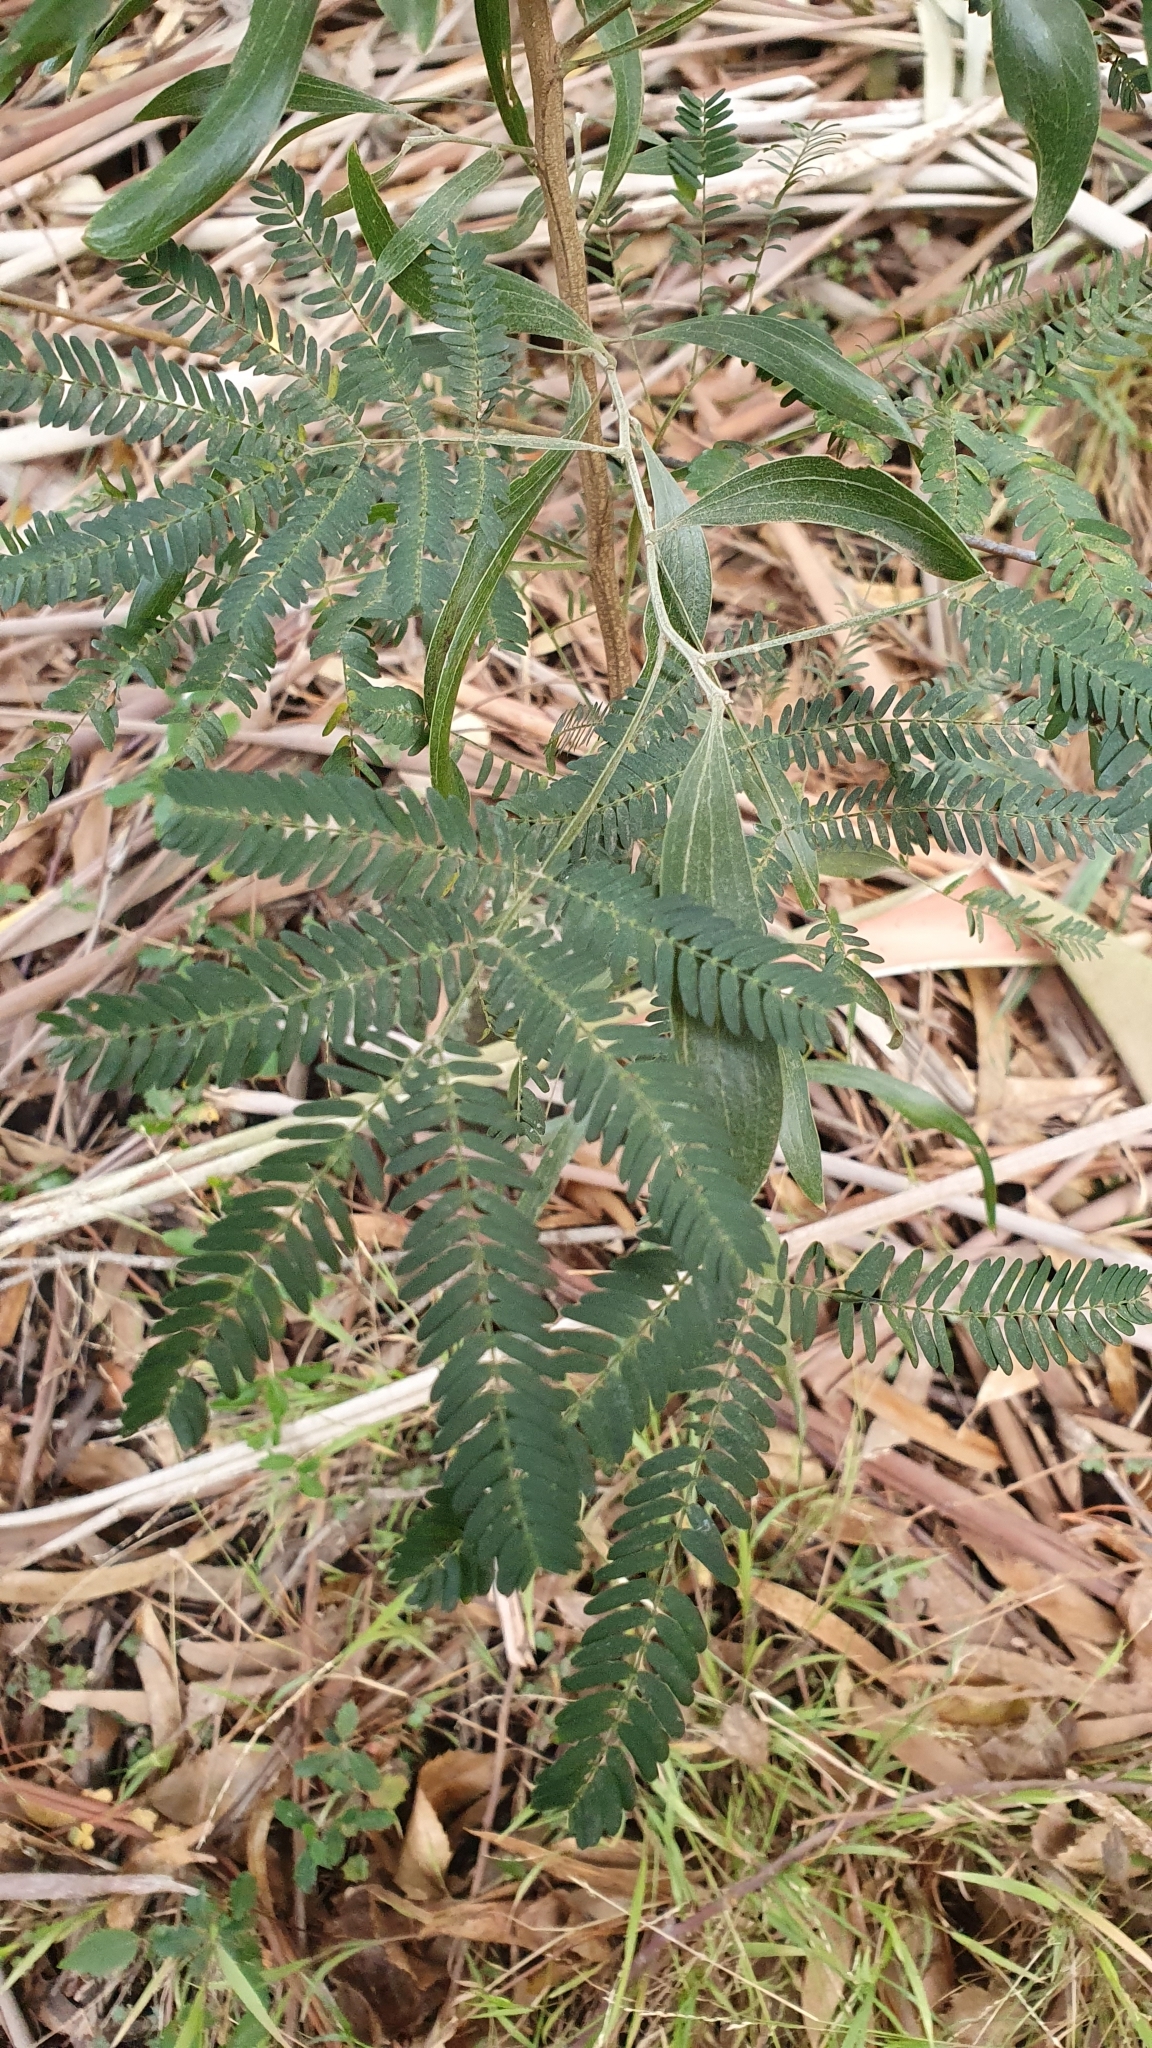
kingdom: Plantae
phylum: Tracheophyta
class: Magnoliopsida
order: Fabales
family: Fabaceae
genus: Acacia
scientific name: Acacia melanoxylon
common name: Blackwood
